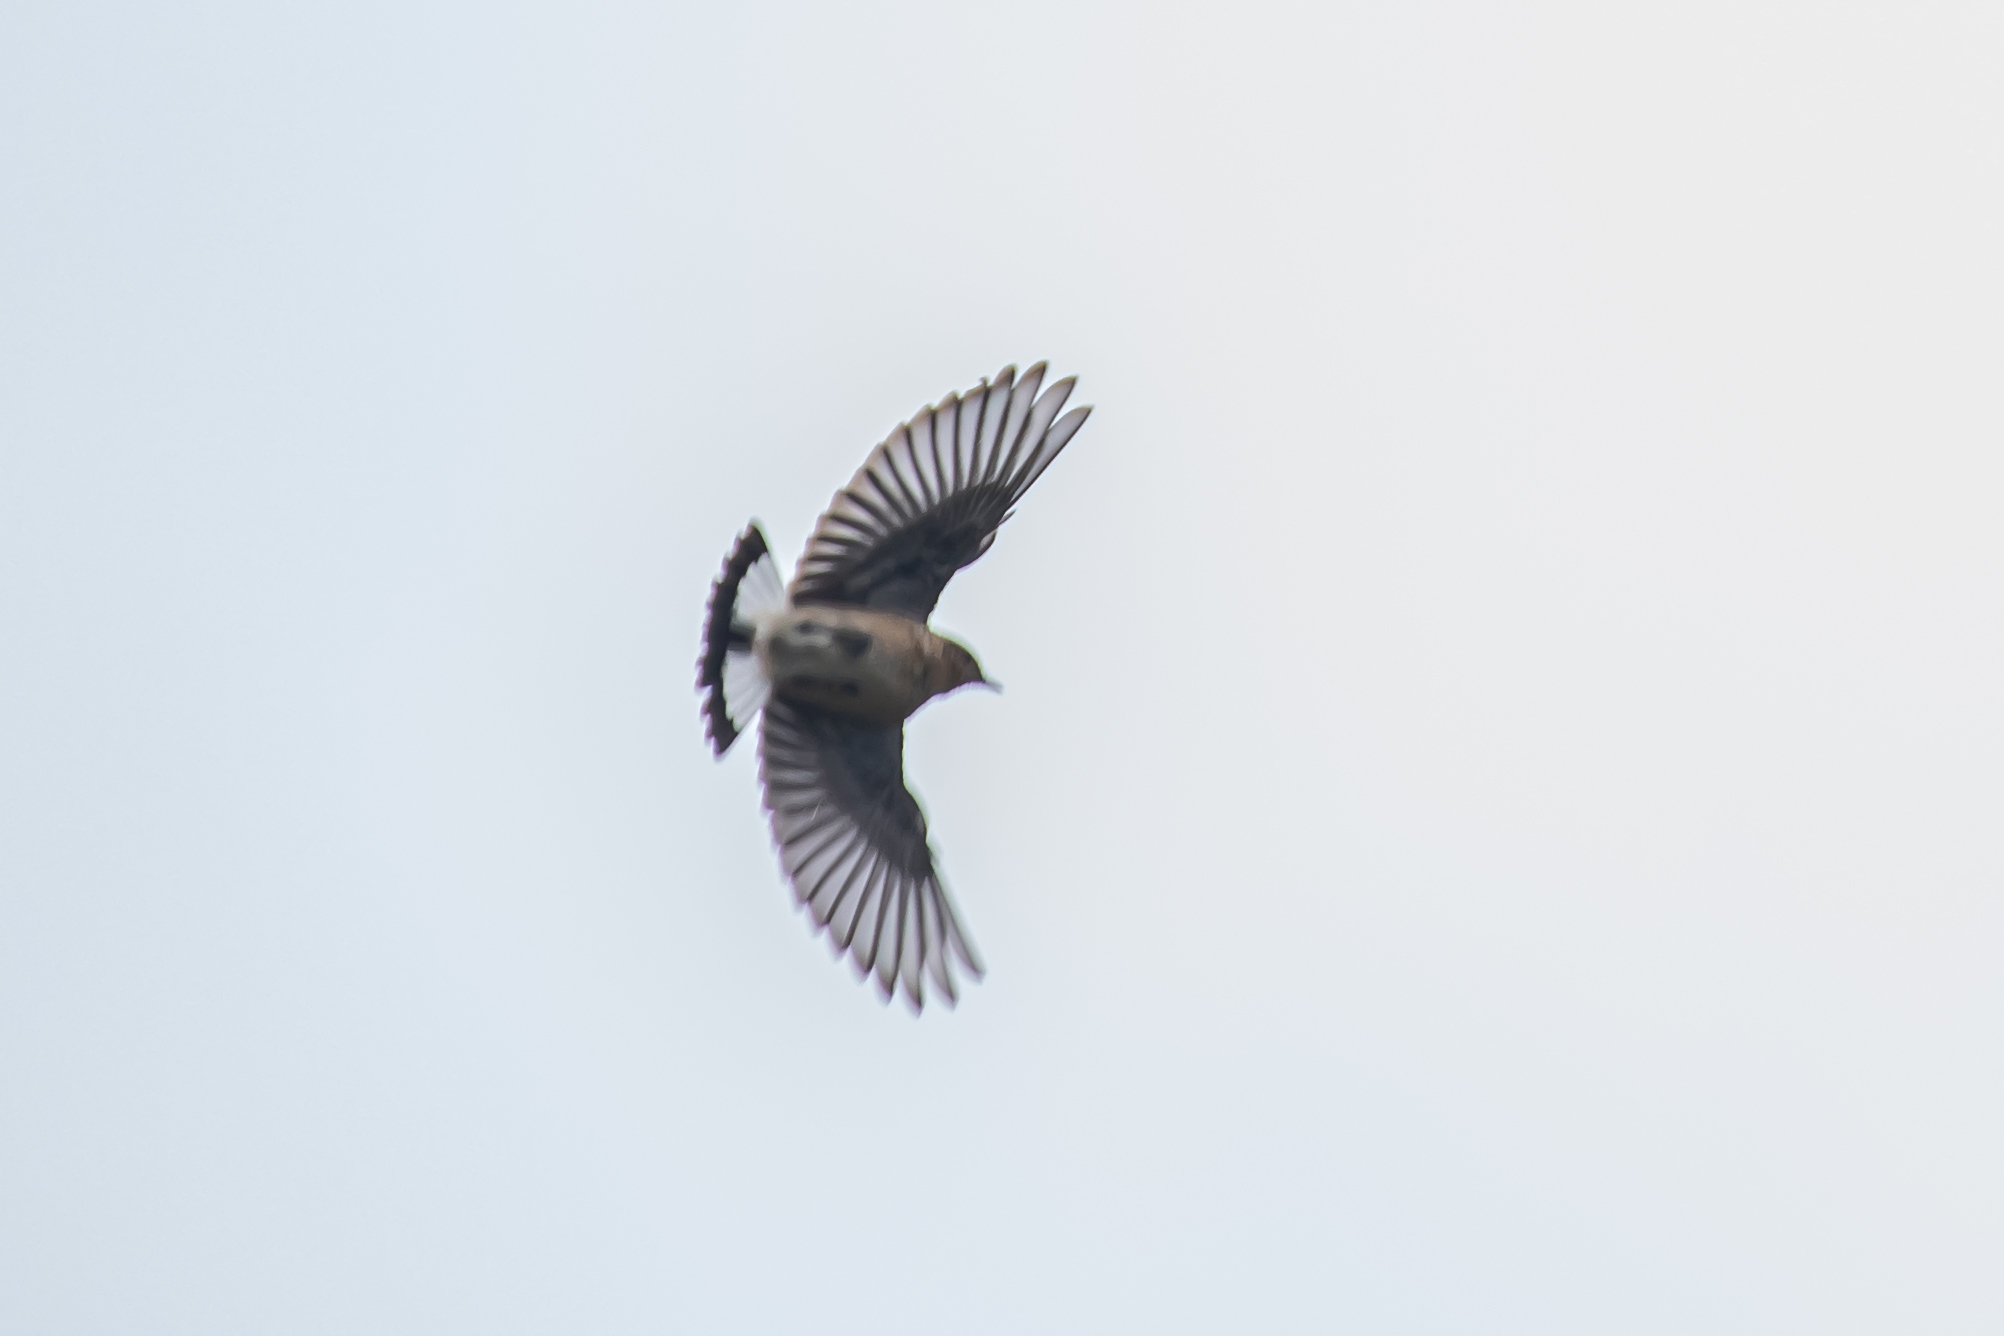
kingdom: Animalia
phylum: Chordata
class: Aves
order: Passeriformes
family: Muscicapidae
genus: Oenanthe
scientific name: Oenanthe oenanthe
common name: Northern wheatear
